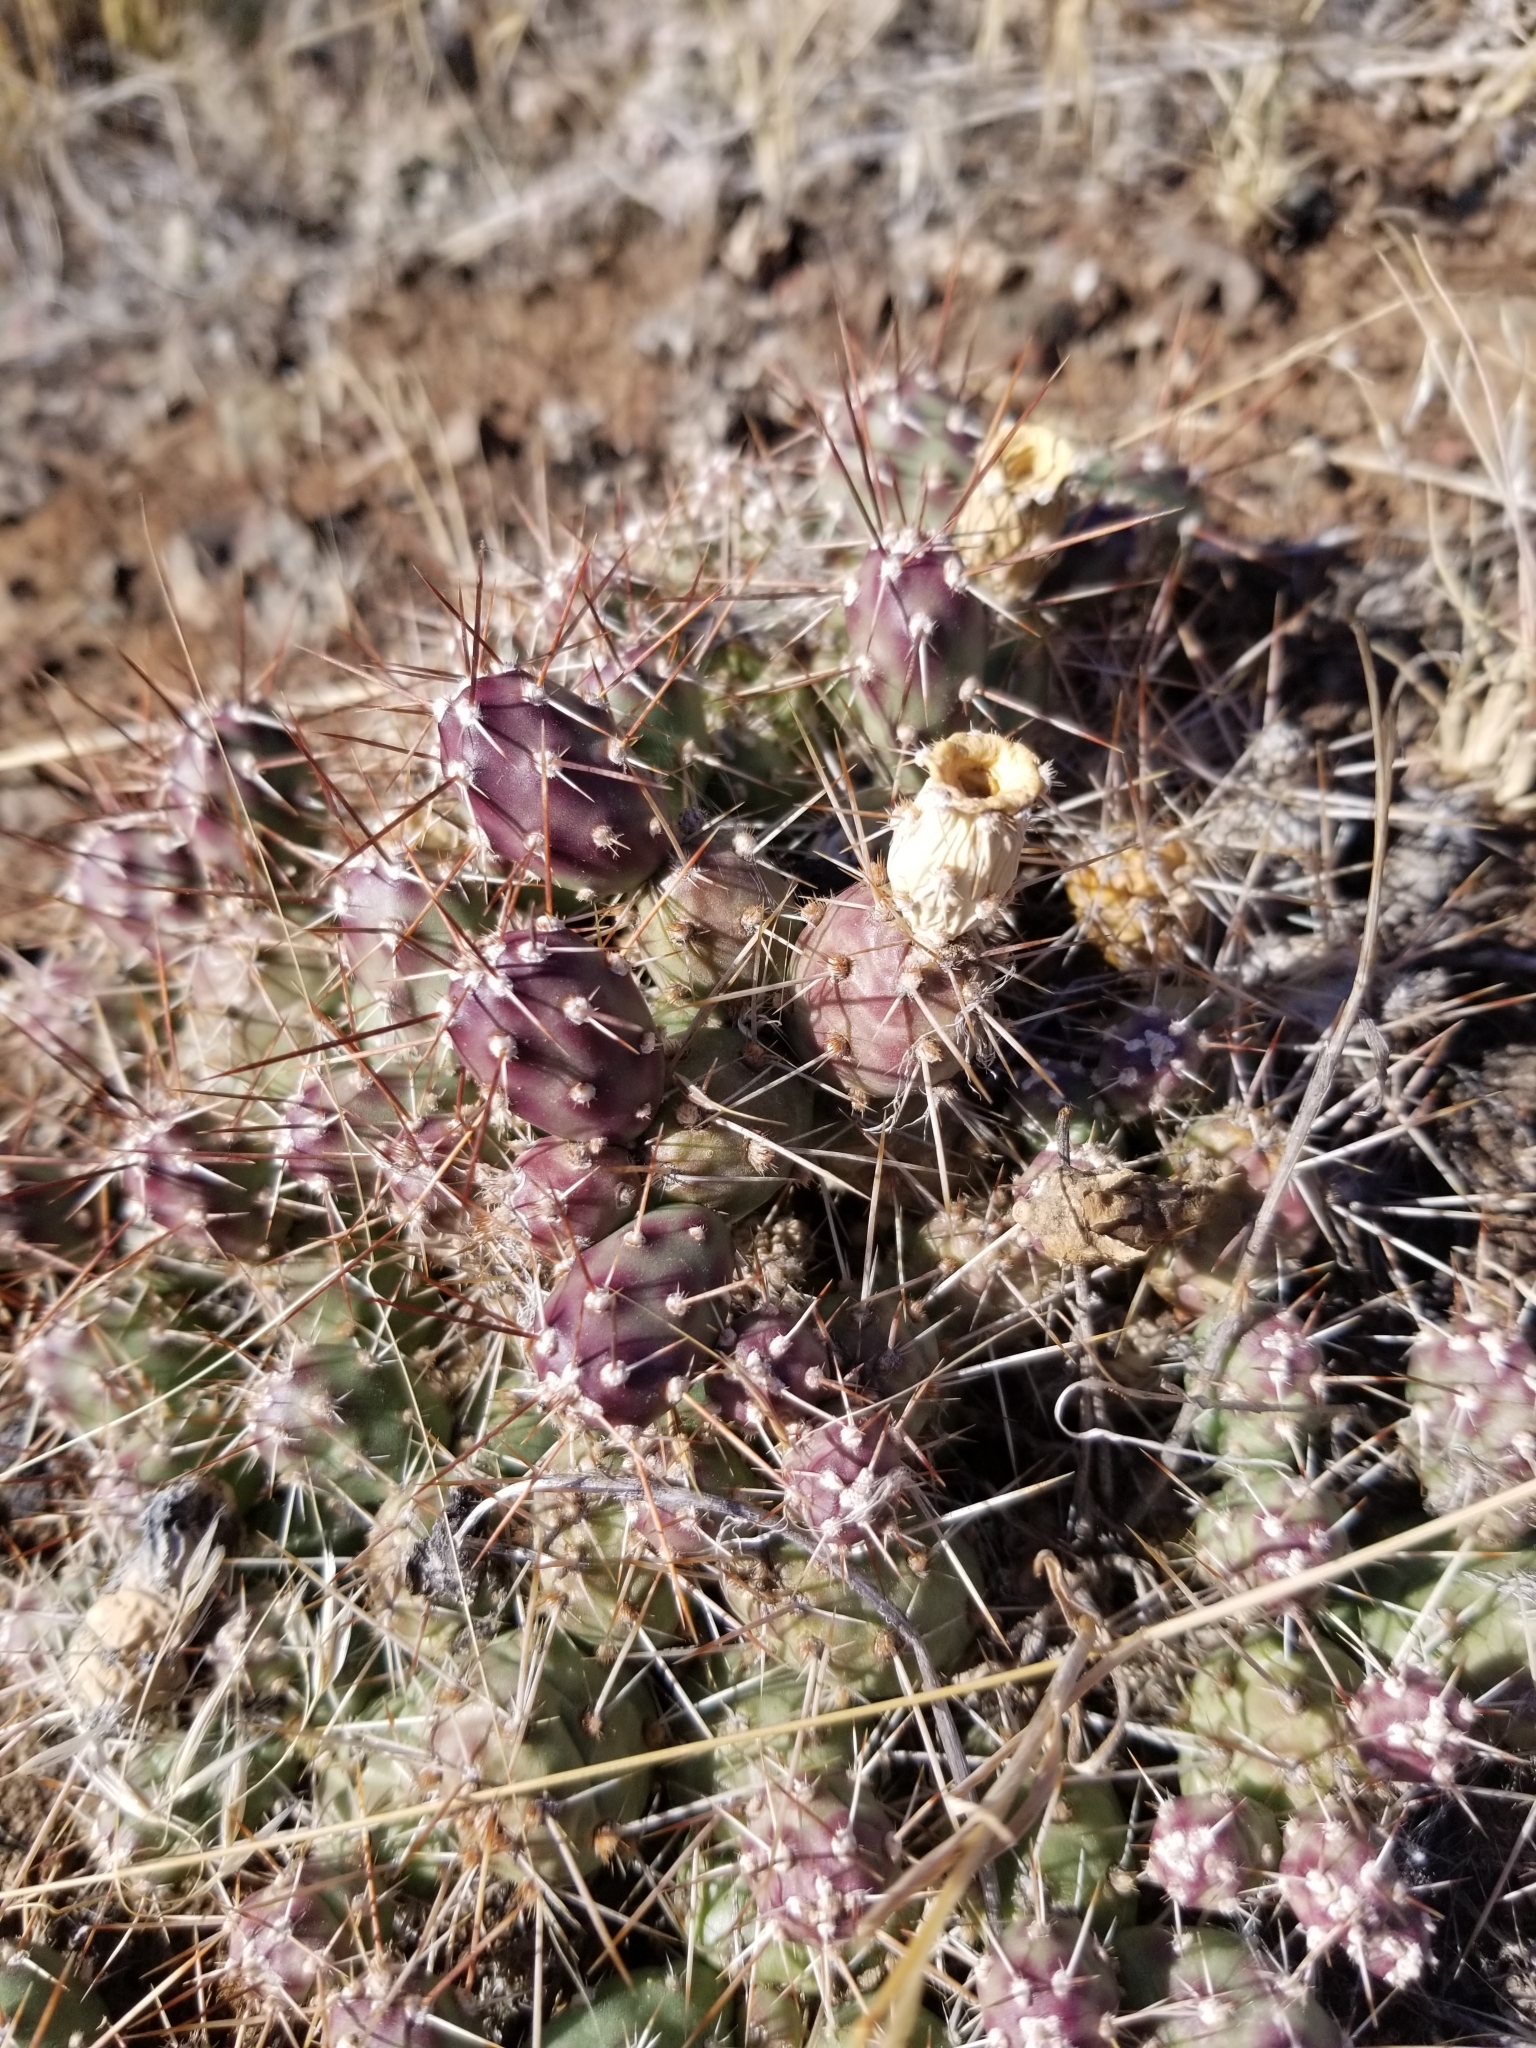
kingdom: Plantae
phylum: Tracheophyta
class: Magnoliopsida
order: Caryophyllales
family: Cactaceae
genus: Opuntia
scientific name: Opuntia fragilis
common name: Brittle cactus
